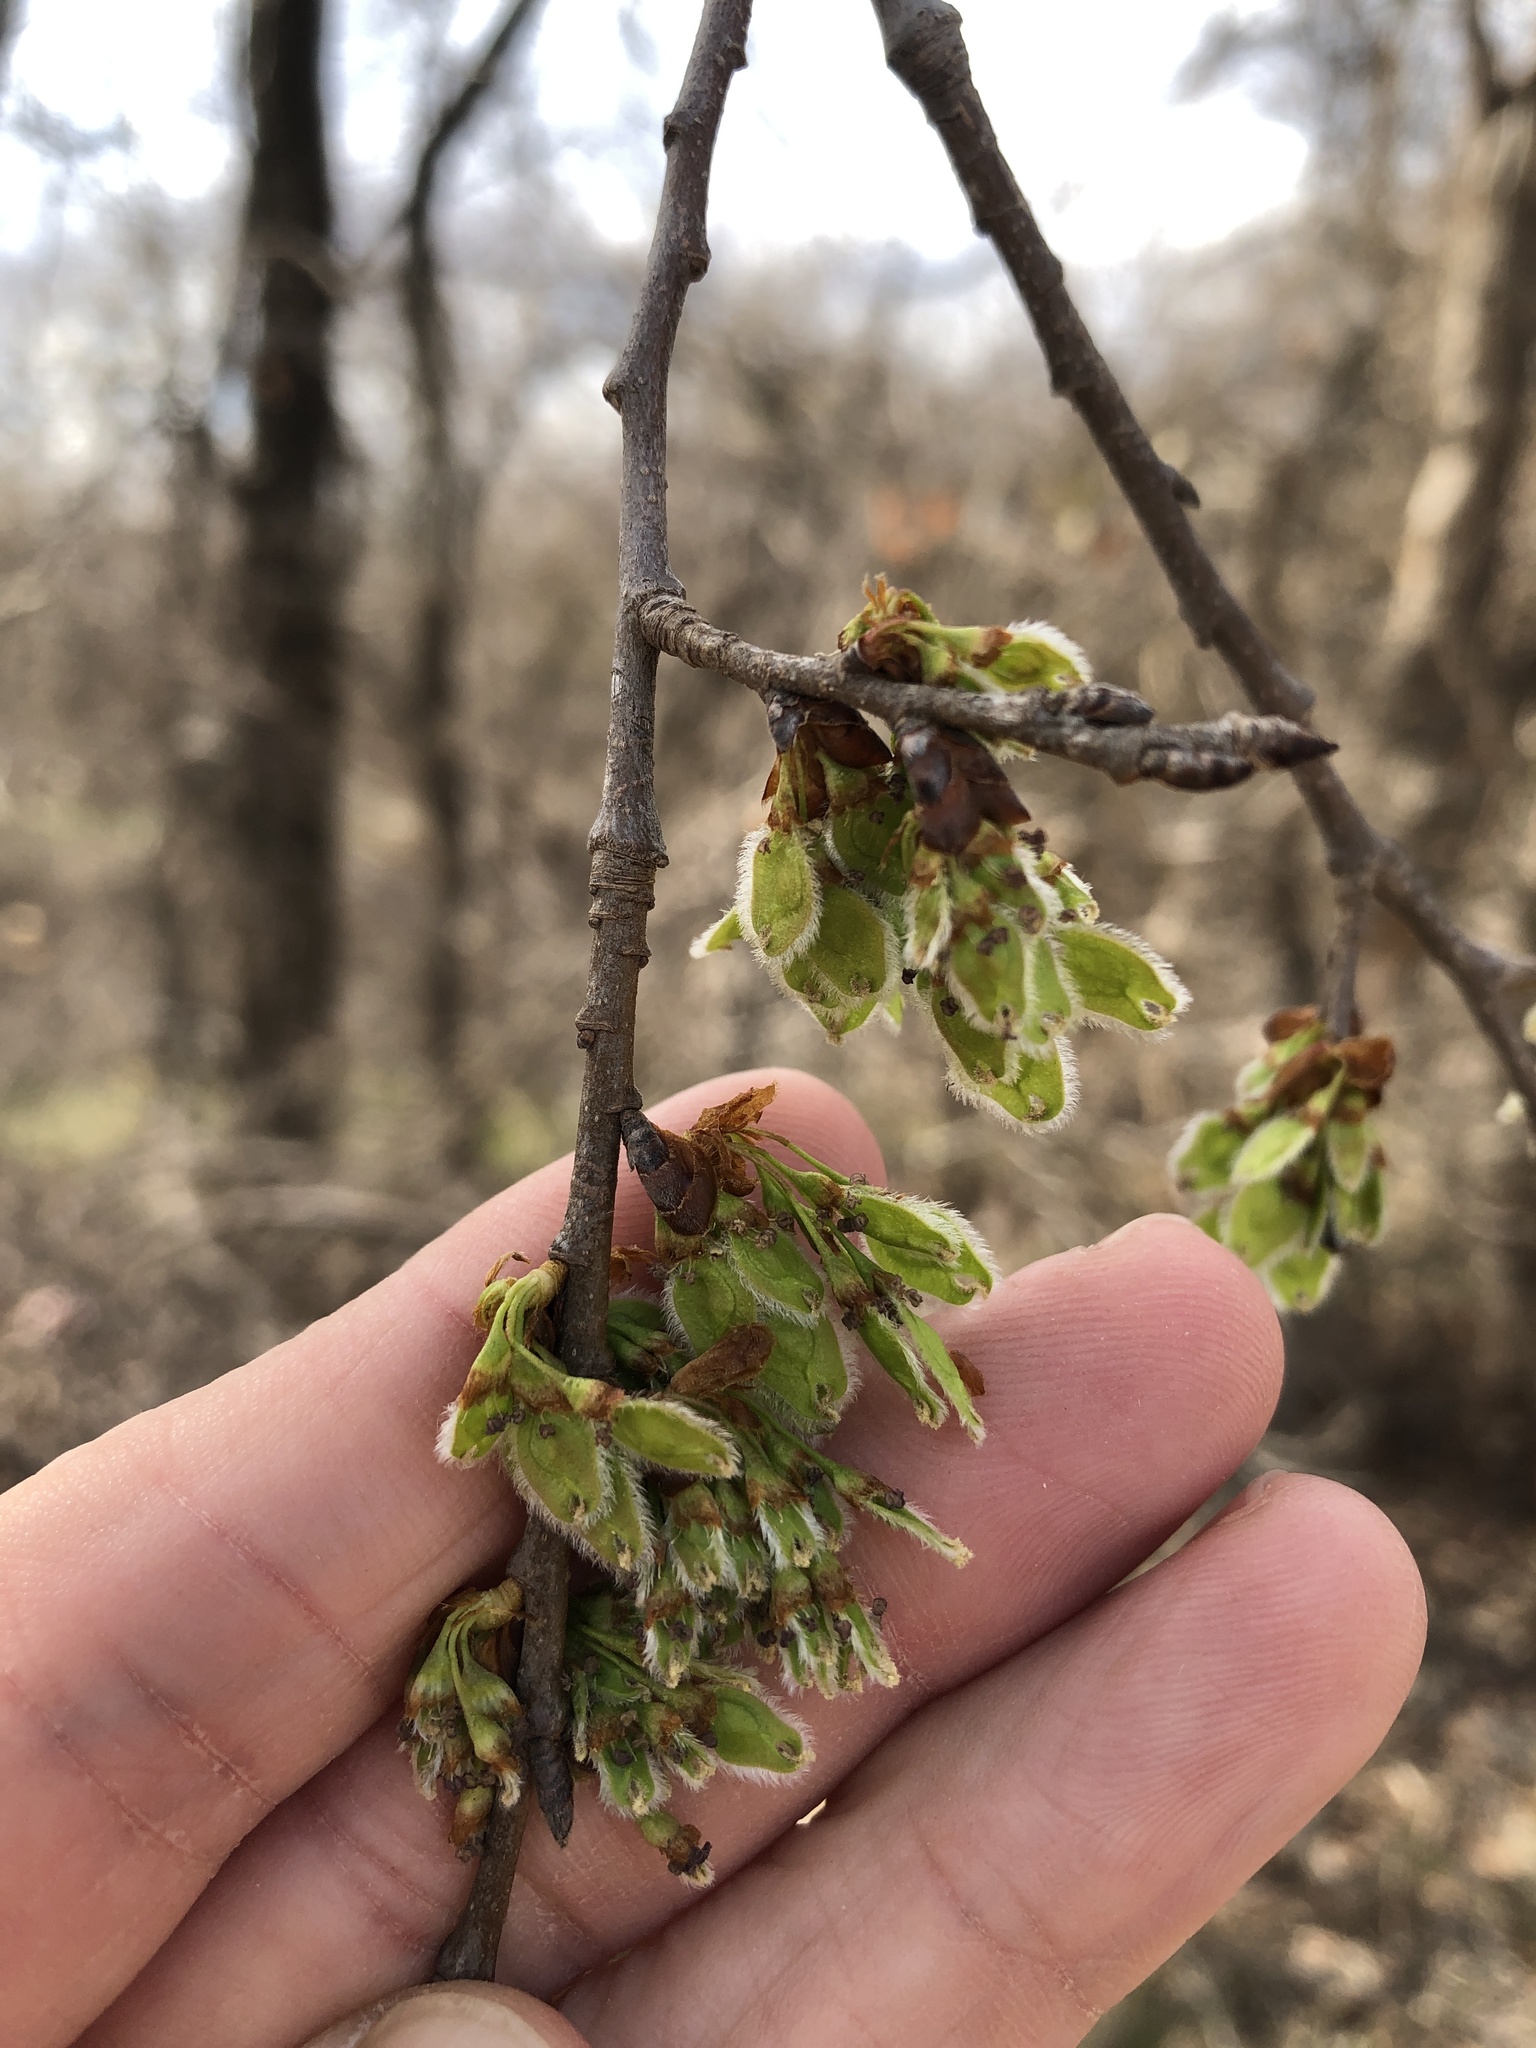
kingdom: Plantae
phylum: Tracheophyta
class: Magnoliopsida
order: Rosales
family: Ulmaceae
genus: Ulmus
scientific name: Ulmus americana
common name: American elm
